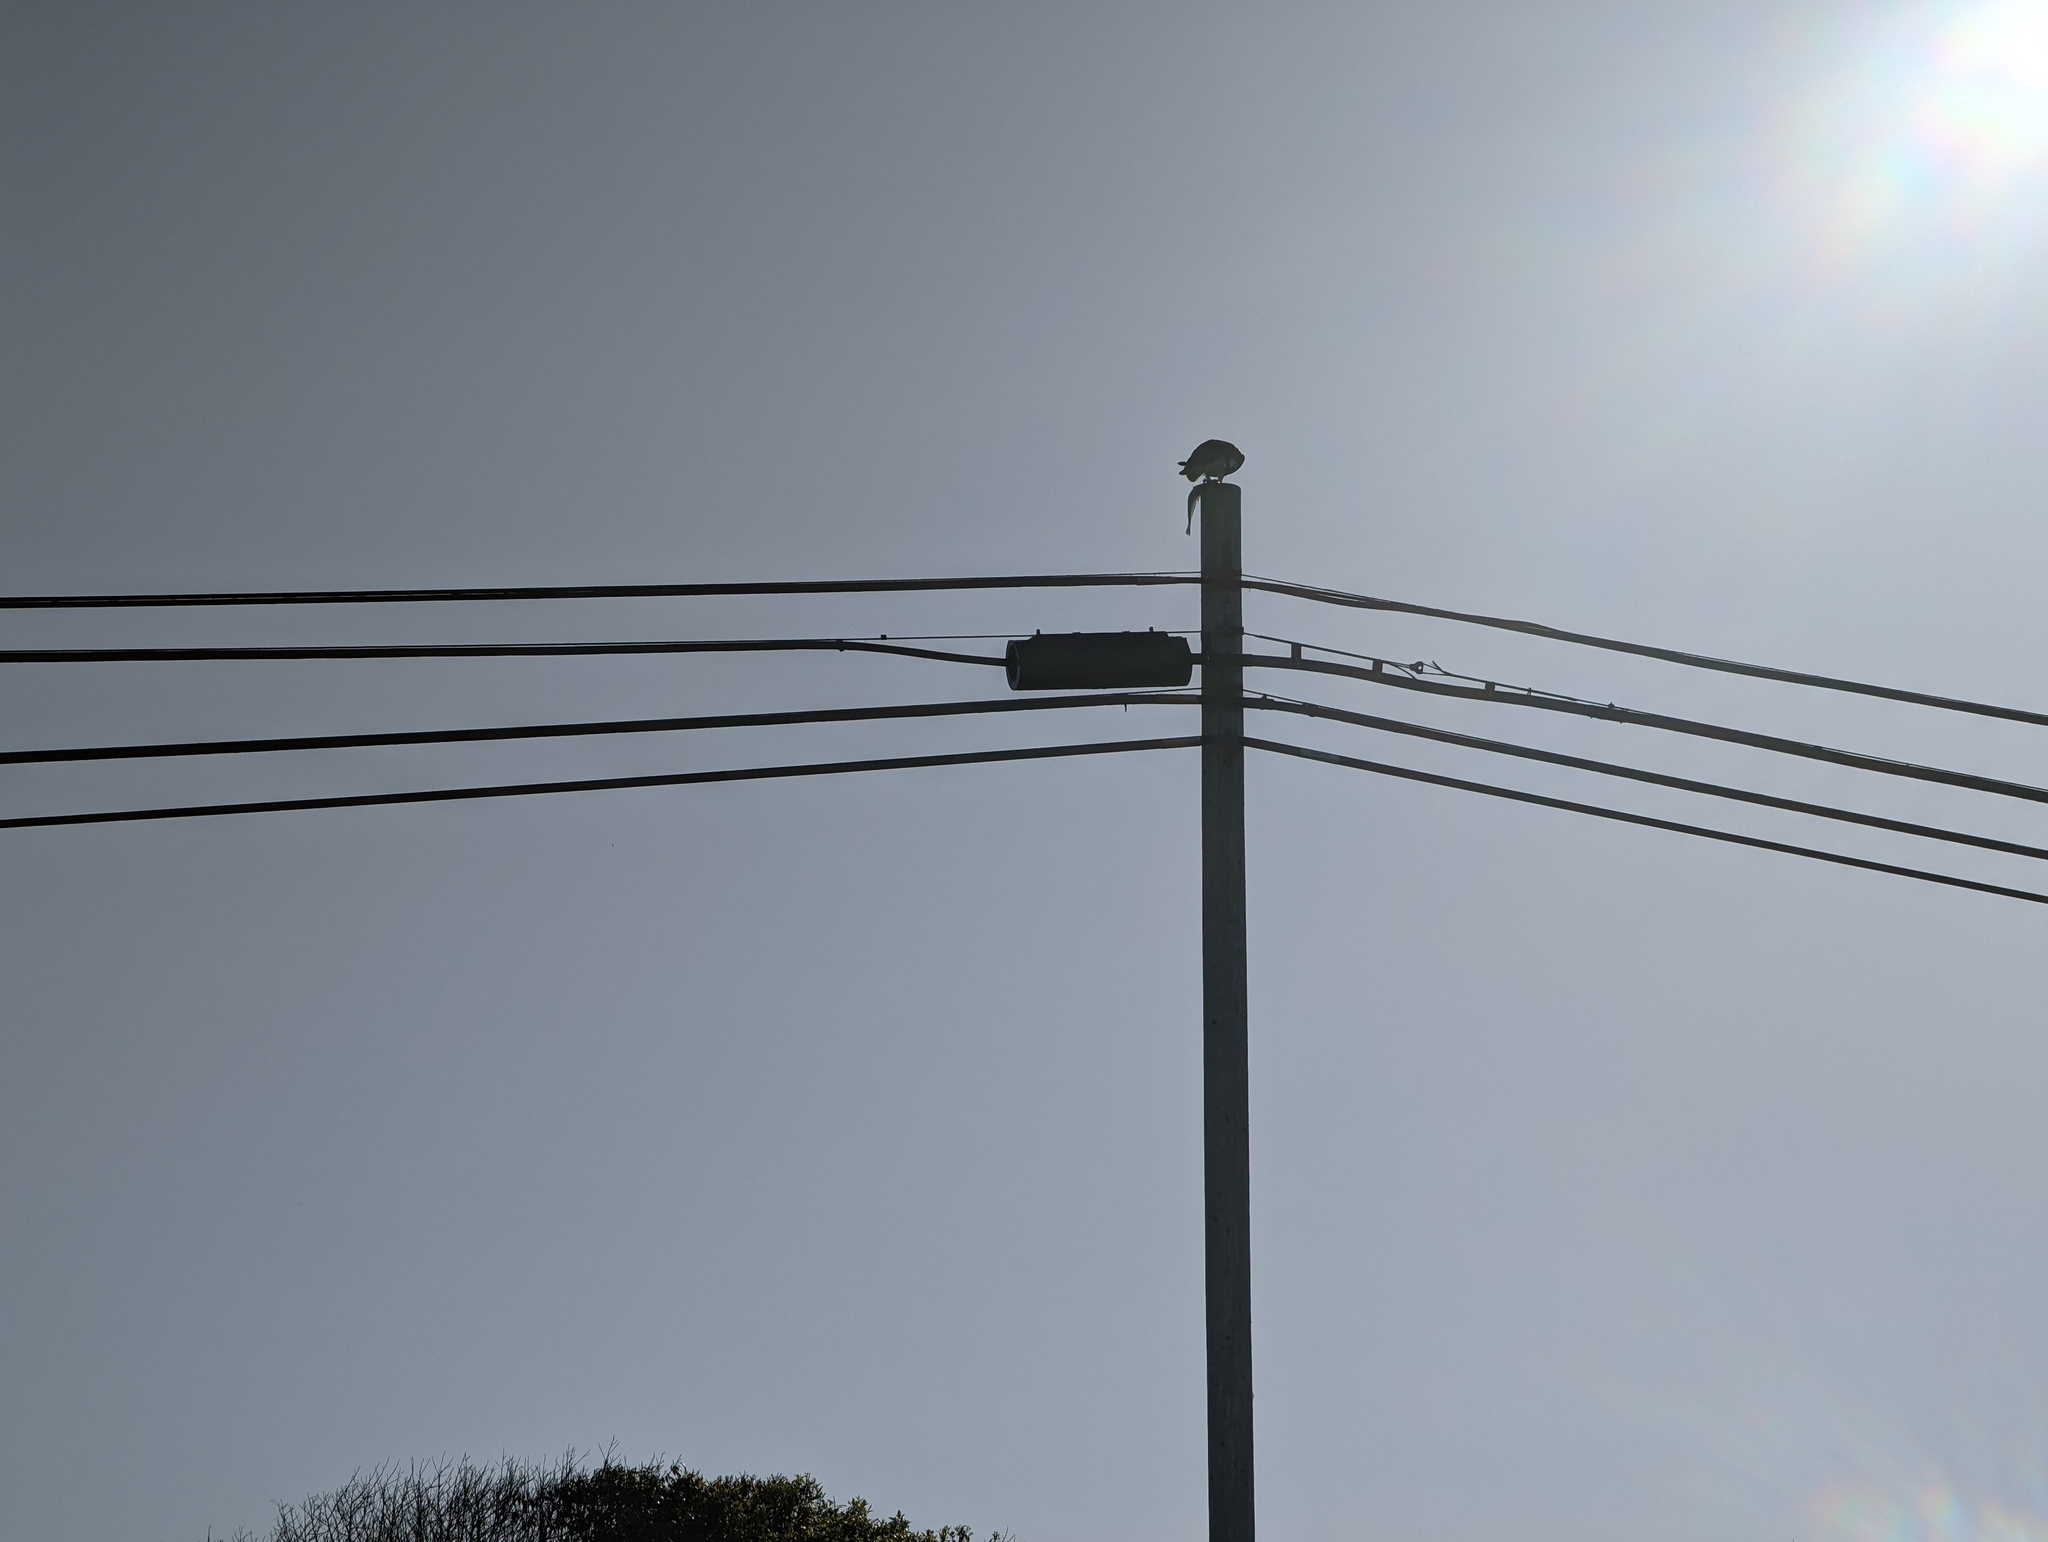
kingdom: Animalia
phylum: Chordata
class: Aves
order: Accipitriformes
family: Pandionidae
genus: Pandion
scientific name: Pandion haliaetus
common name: Osprey
